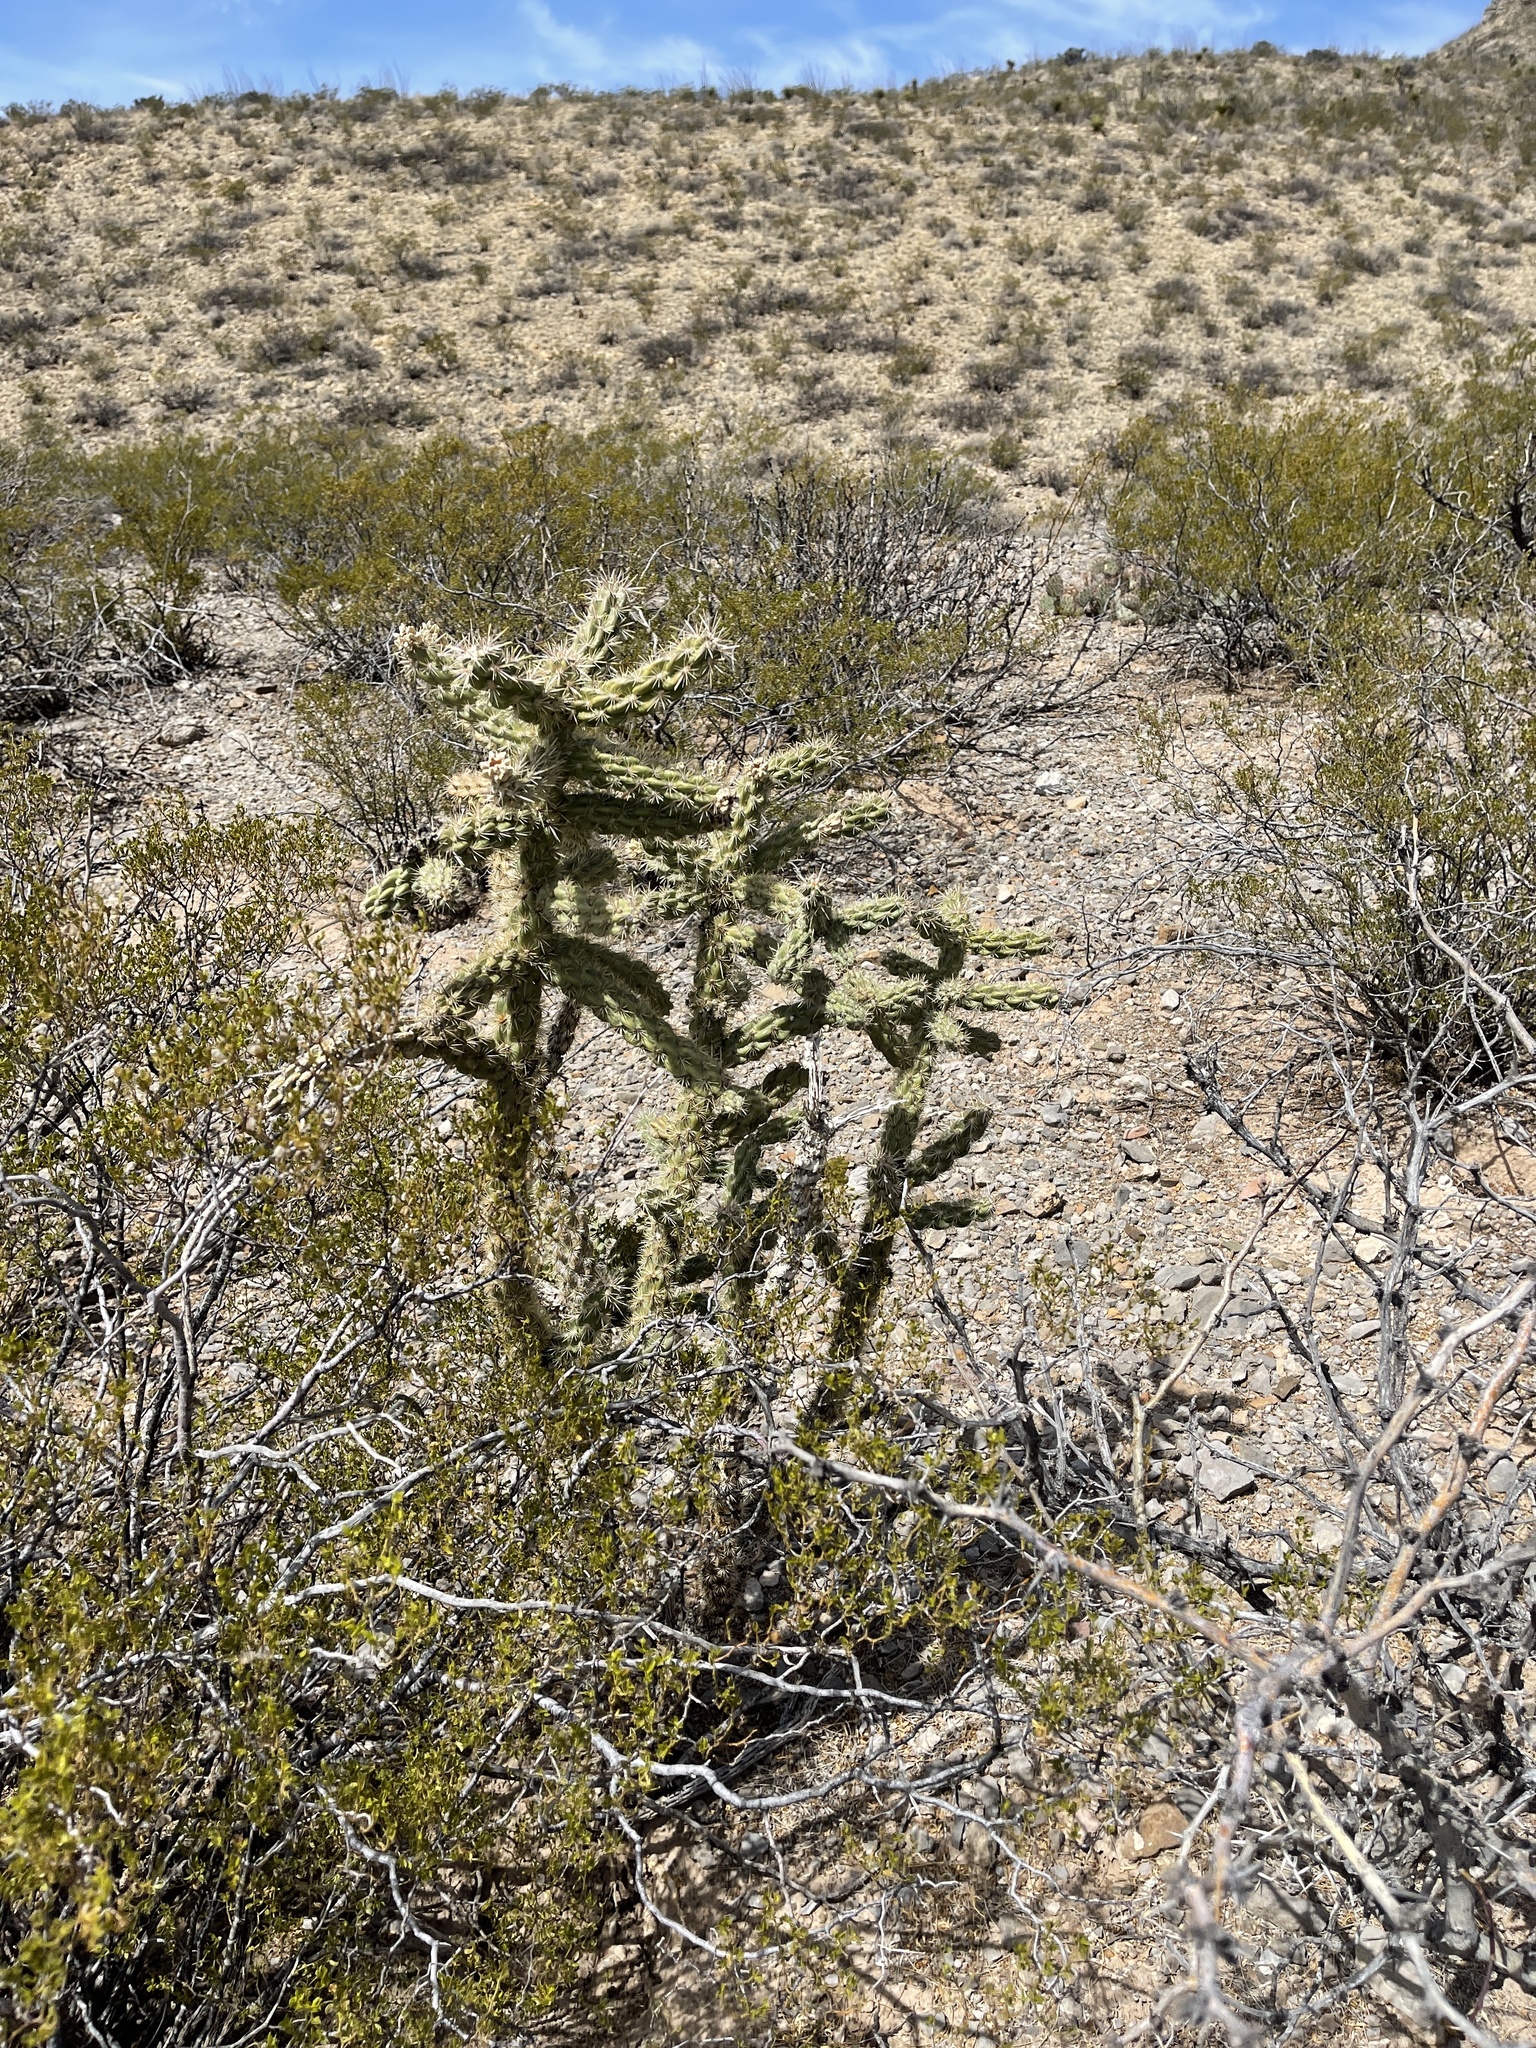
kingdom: Plantae
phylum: Tracheophyta
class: Magnoliopsida
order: Caryophyllales
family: Cactaceae
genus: Cylindropuntia
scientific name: Cylindropuntia imbricata
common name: Candelabrum cactus
